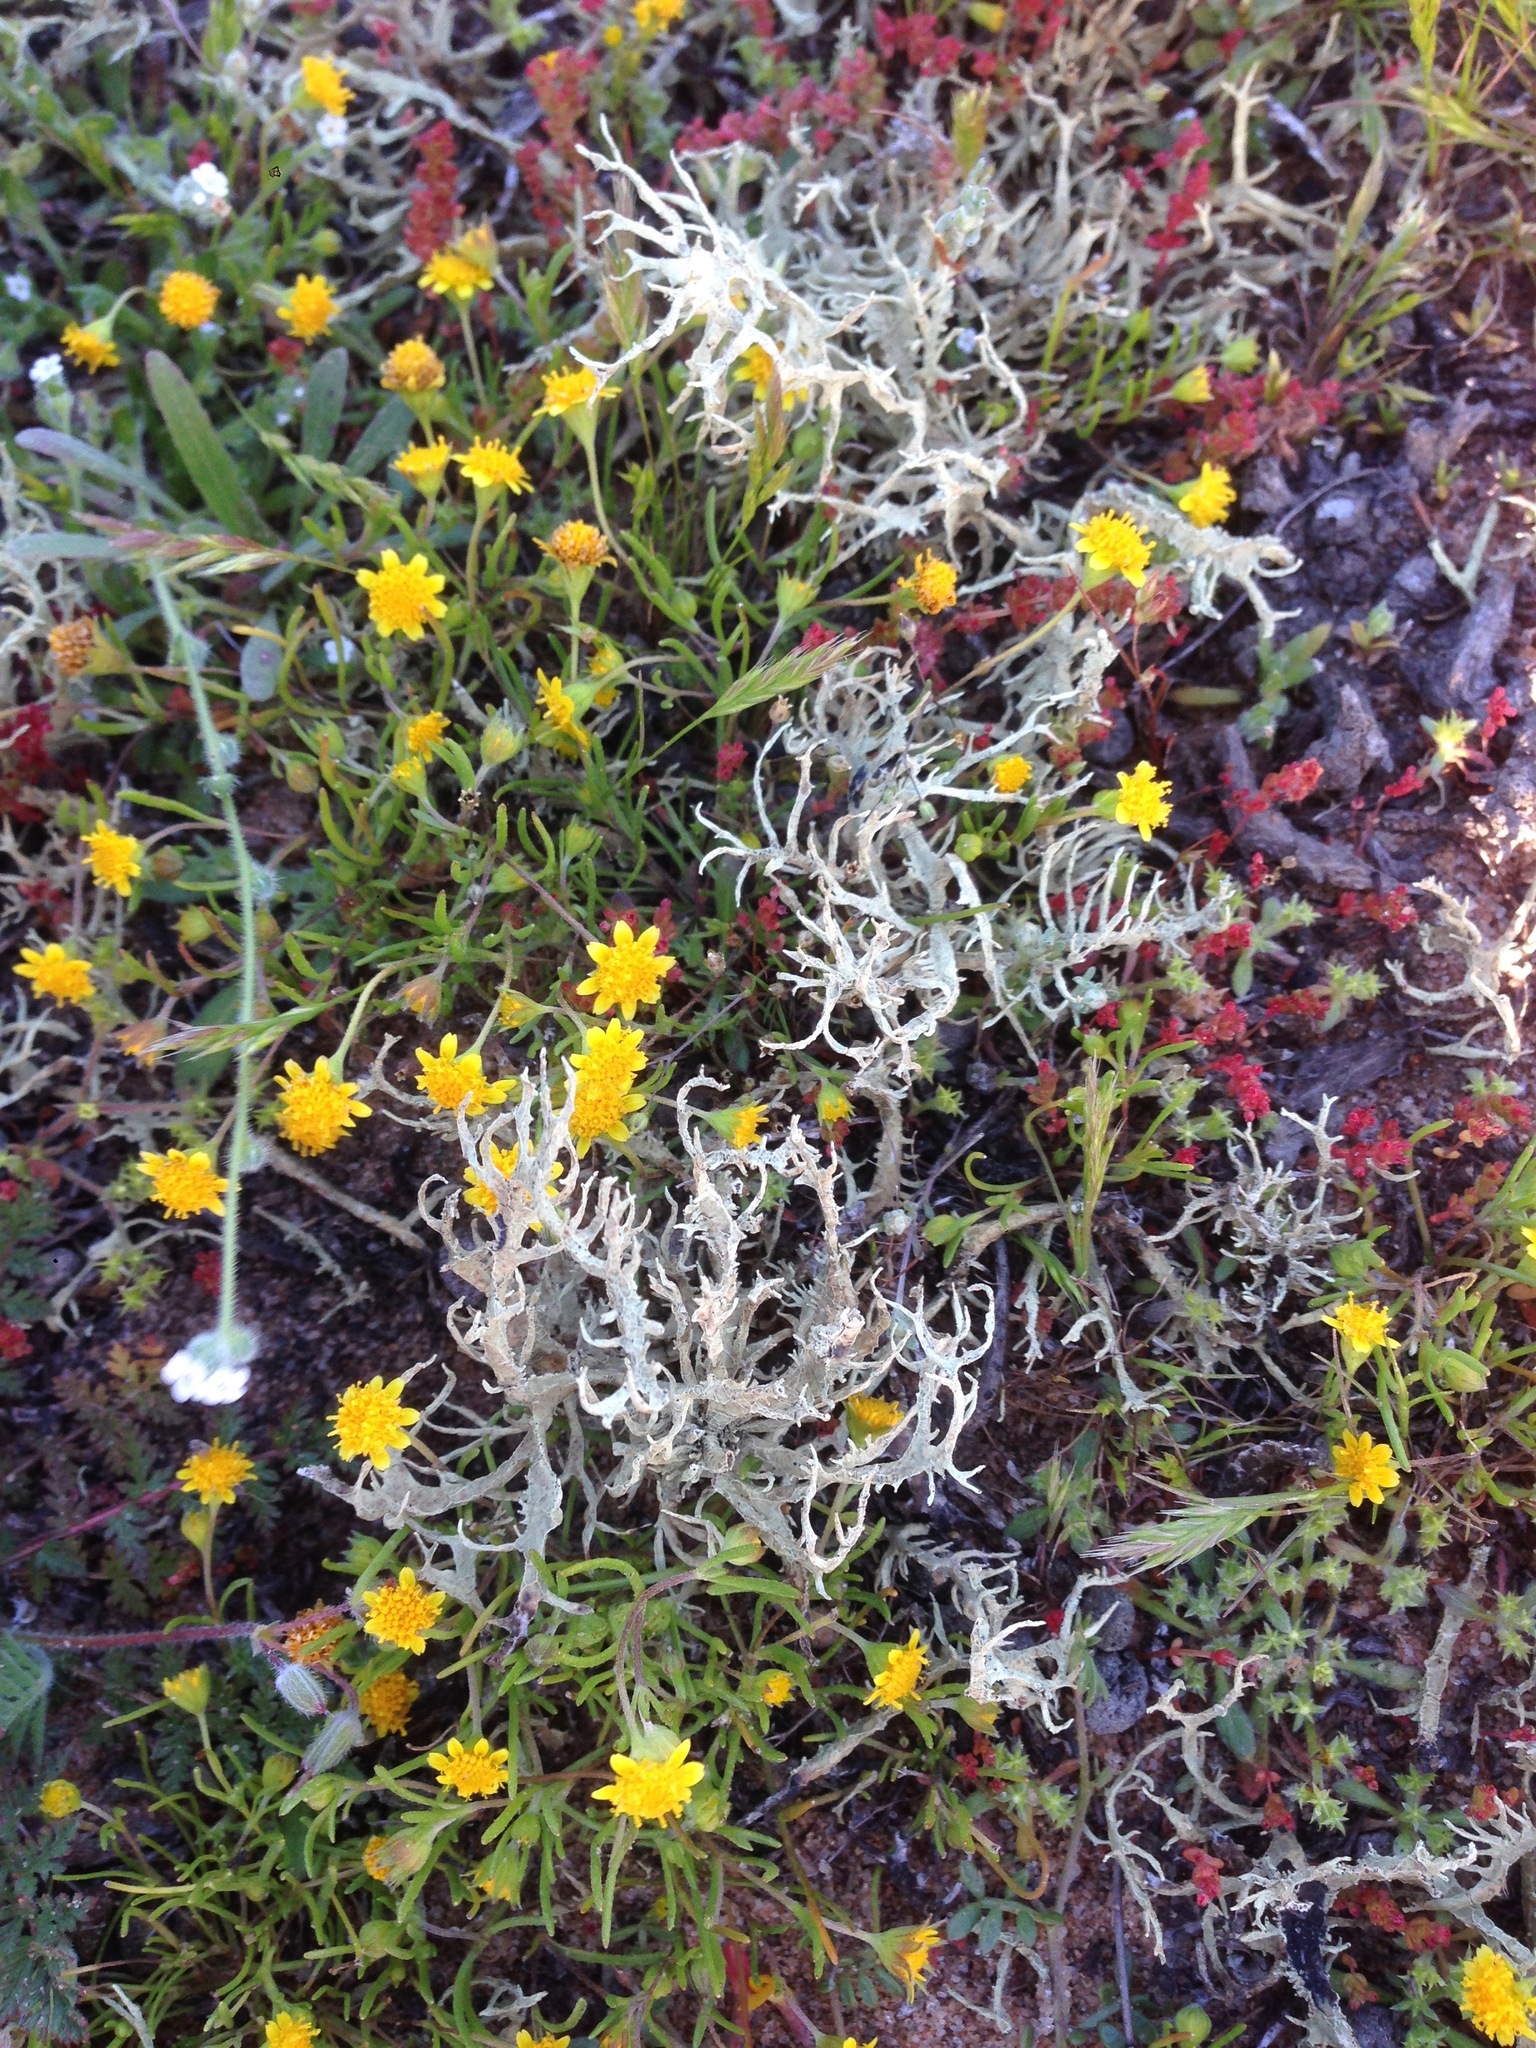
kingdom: Plantae
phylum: Tracheophyta
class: Magnoliopsida
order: Asterales
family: Asteraceae
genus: Lasthenia
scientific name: Lasthenia gracilis
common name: Common goldfields
